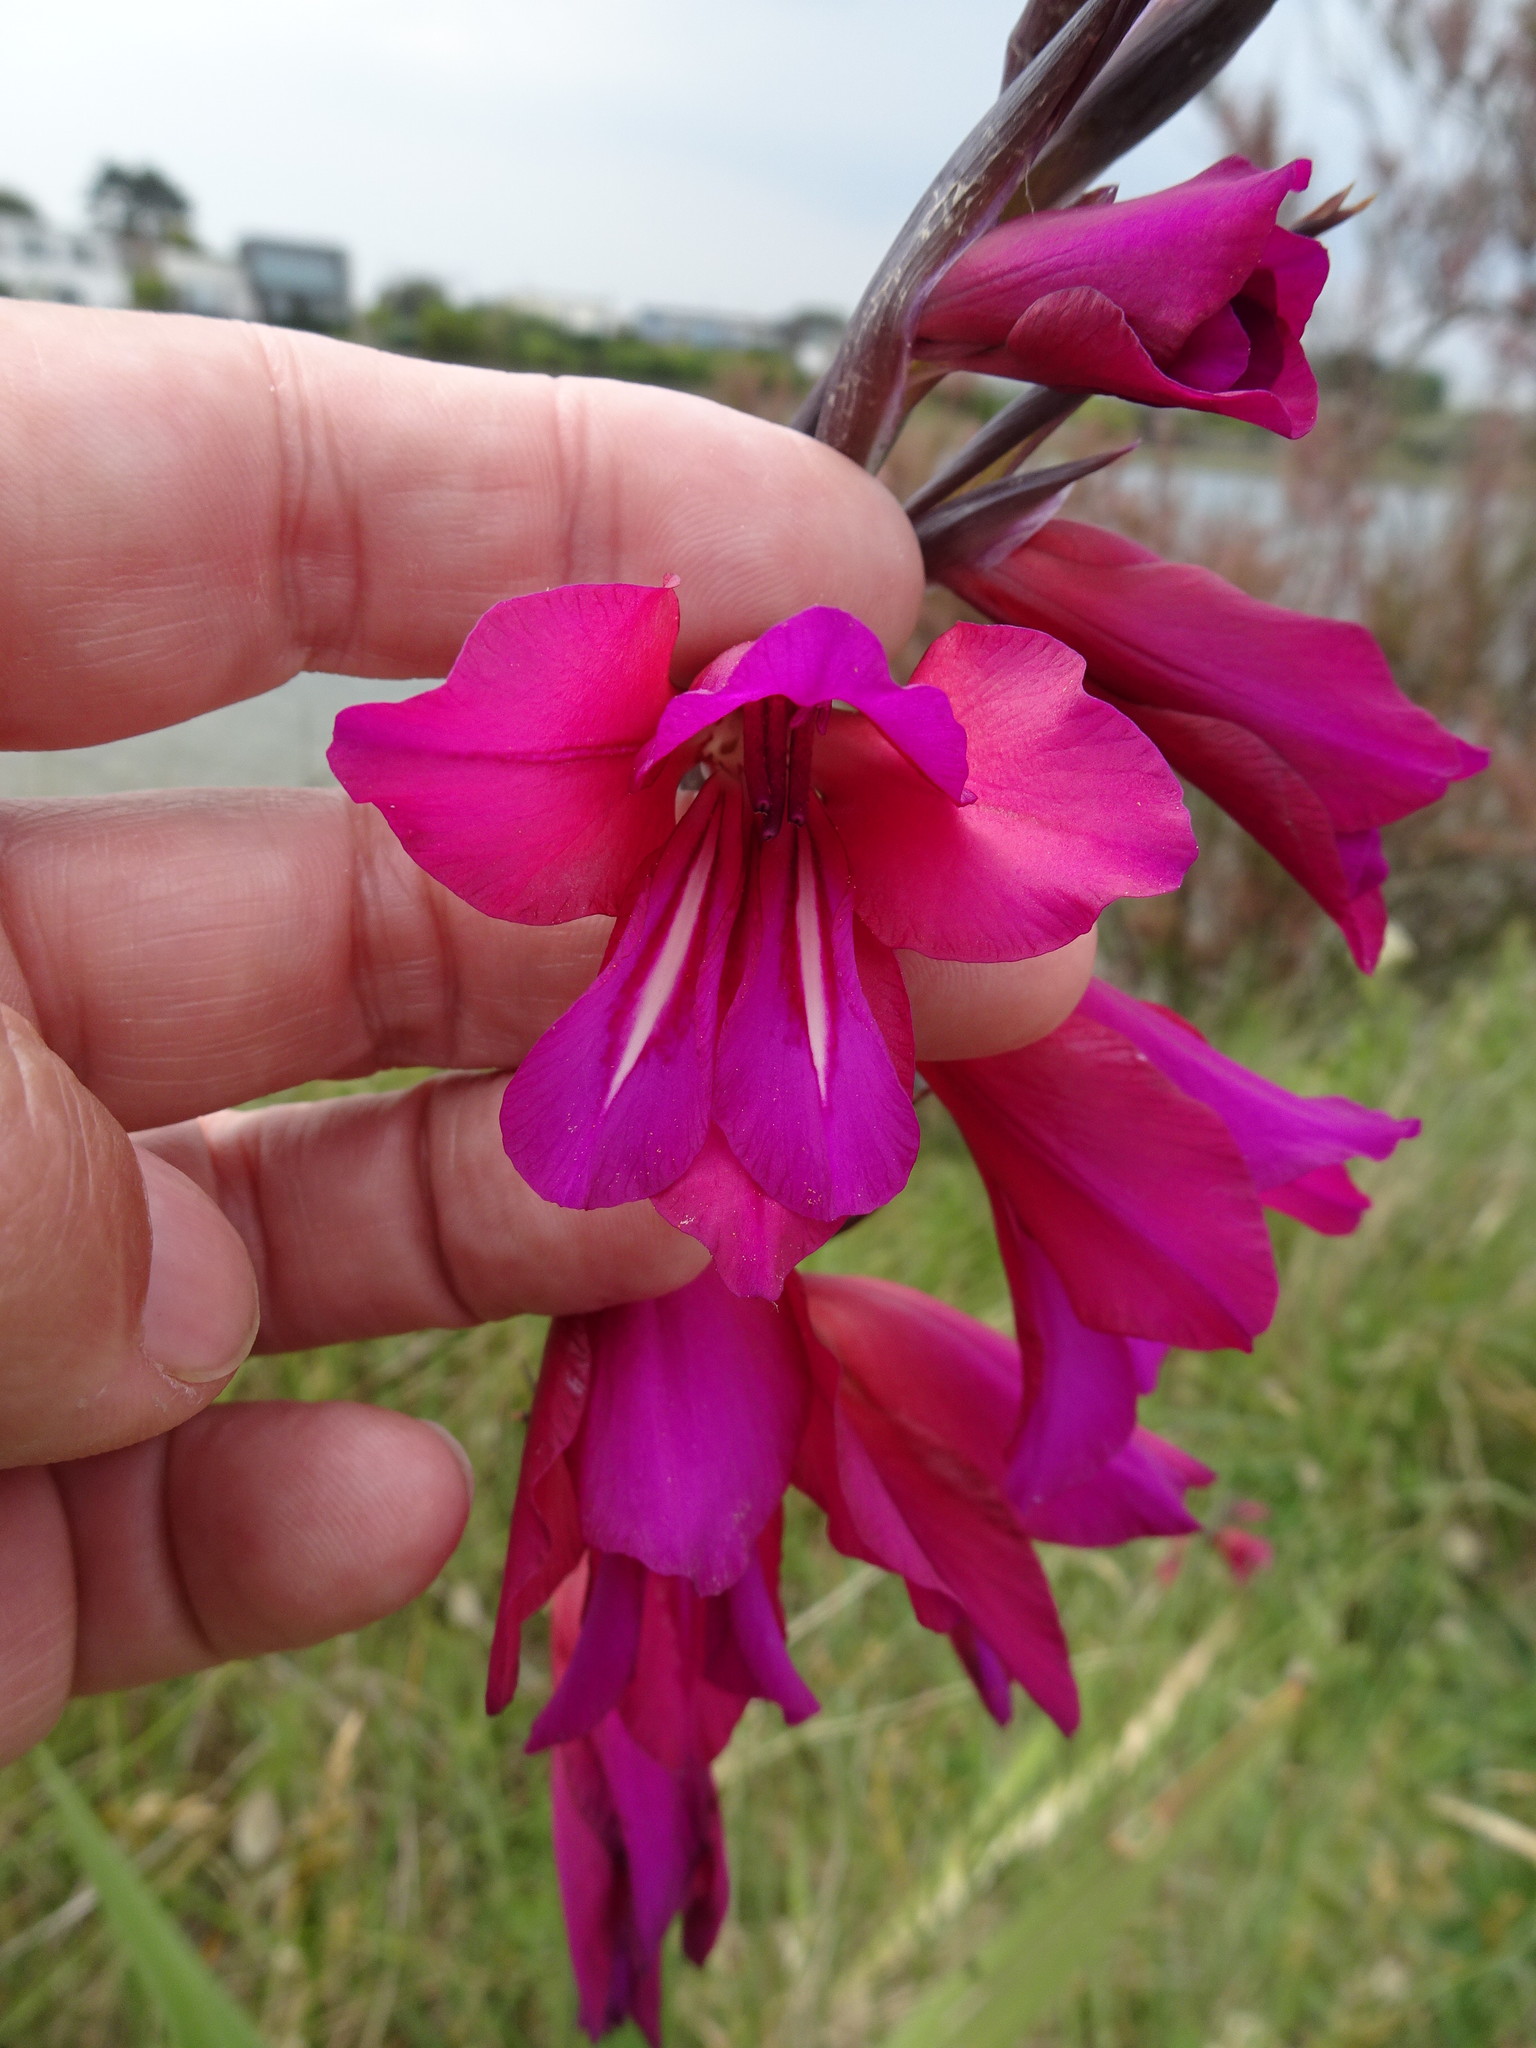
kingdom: Plantae
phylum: Tracheophyta
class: Liliopsida
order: Asparagales
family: Iridaceae
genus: Gladiolus
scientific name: Gladiolus communis
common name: Eastern gladiolus
